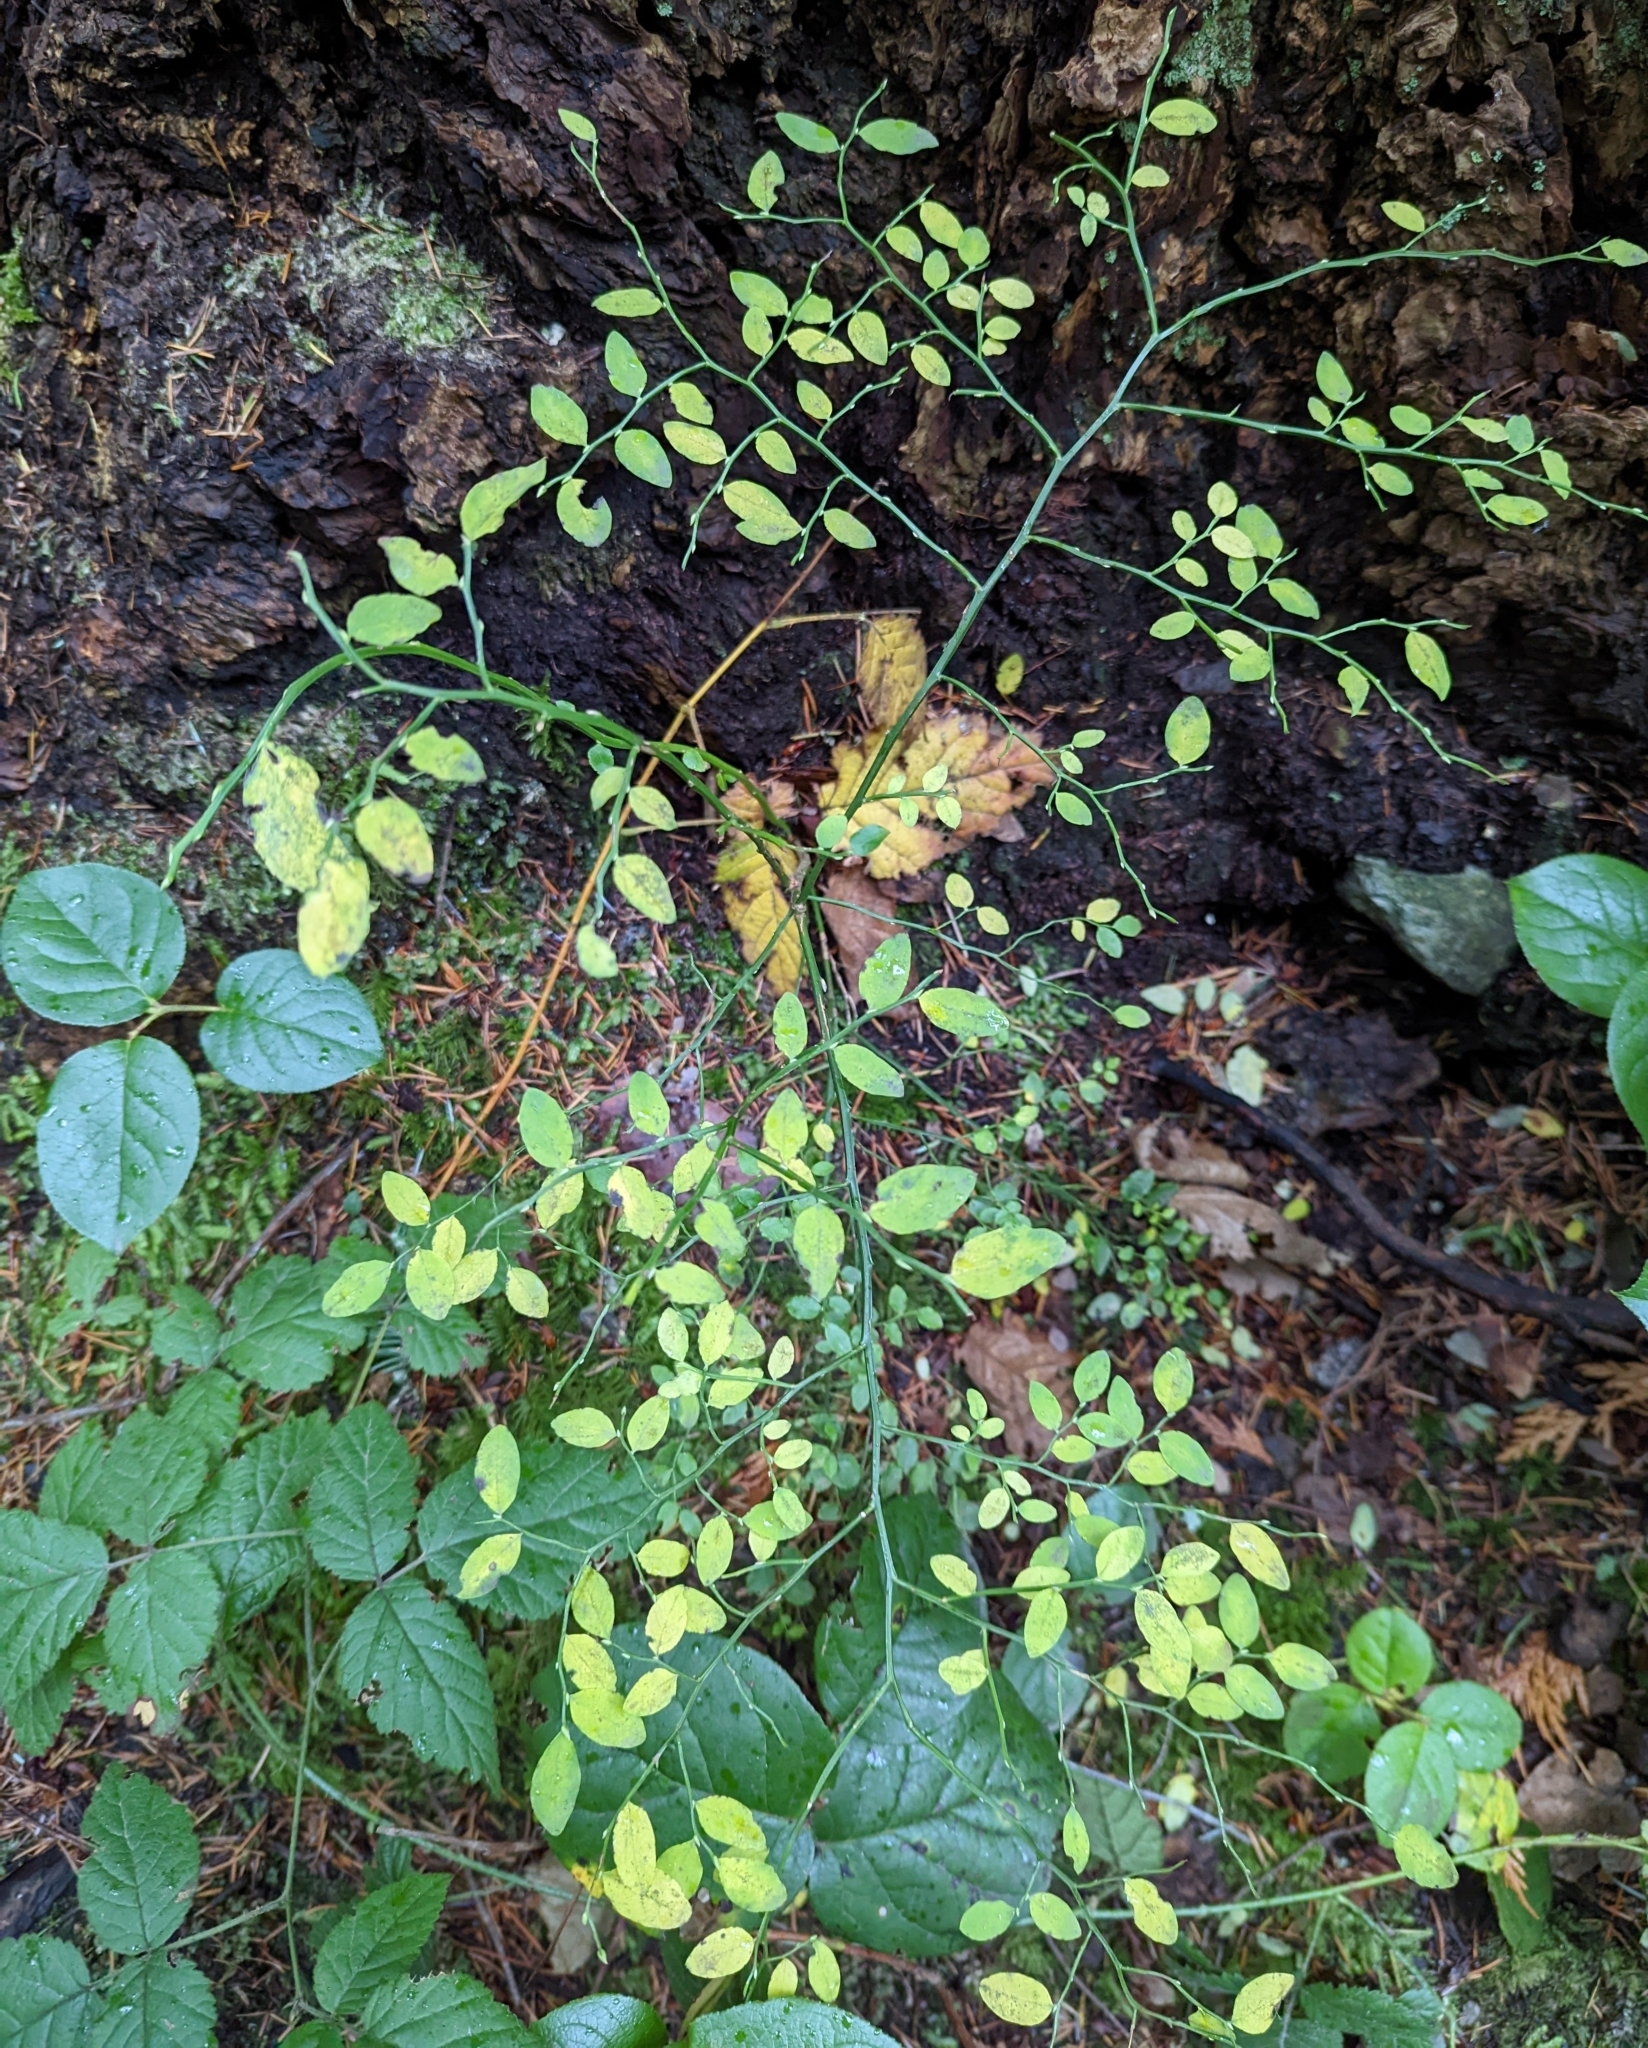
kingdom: Plantae
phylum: Tracheophyta
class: Magnoliopsida
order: Ericales
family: Ericaceae
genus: Vaccinium
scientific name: Vaccinium parvifolium
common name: Red-huckleberry
